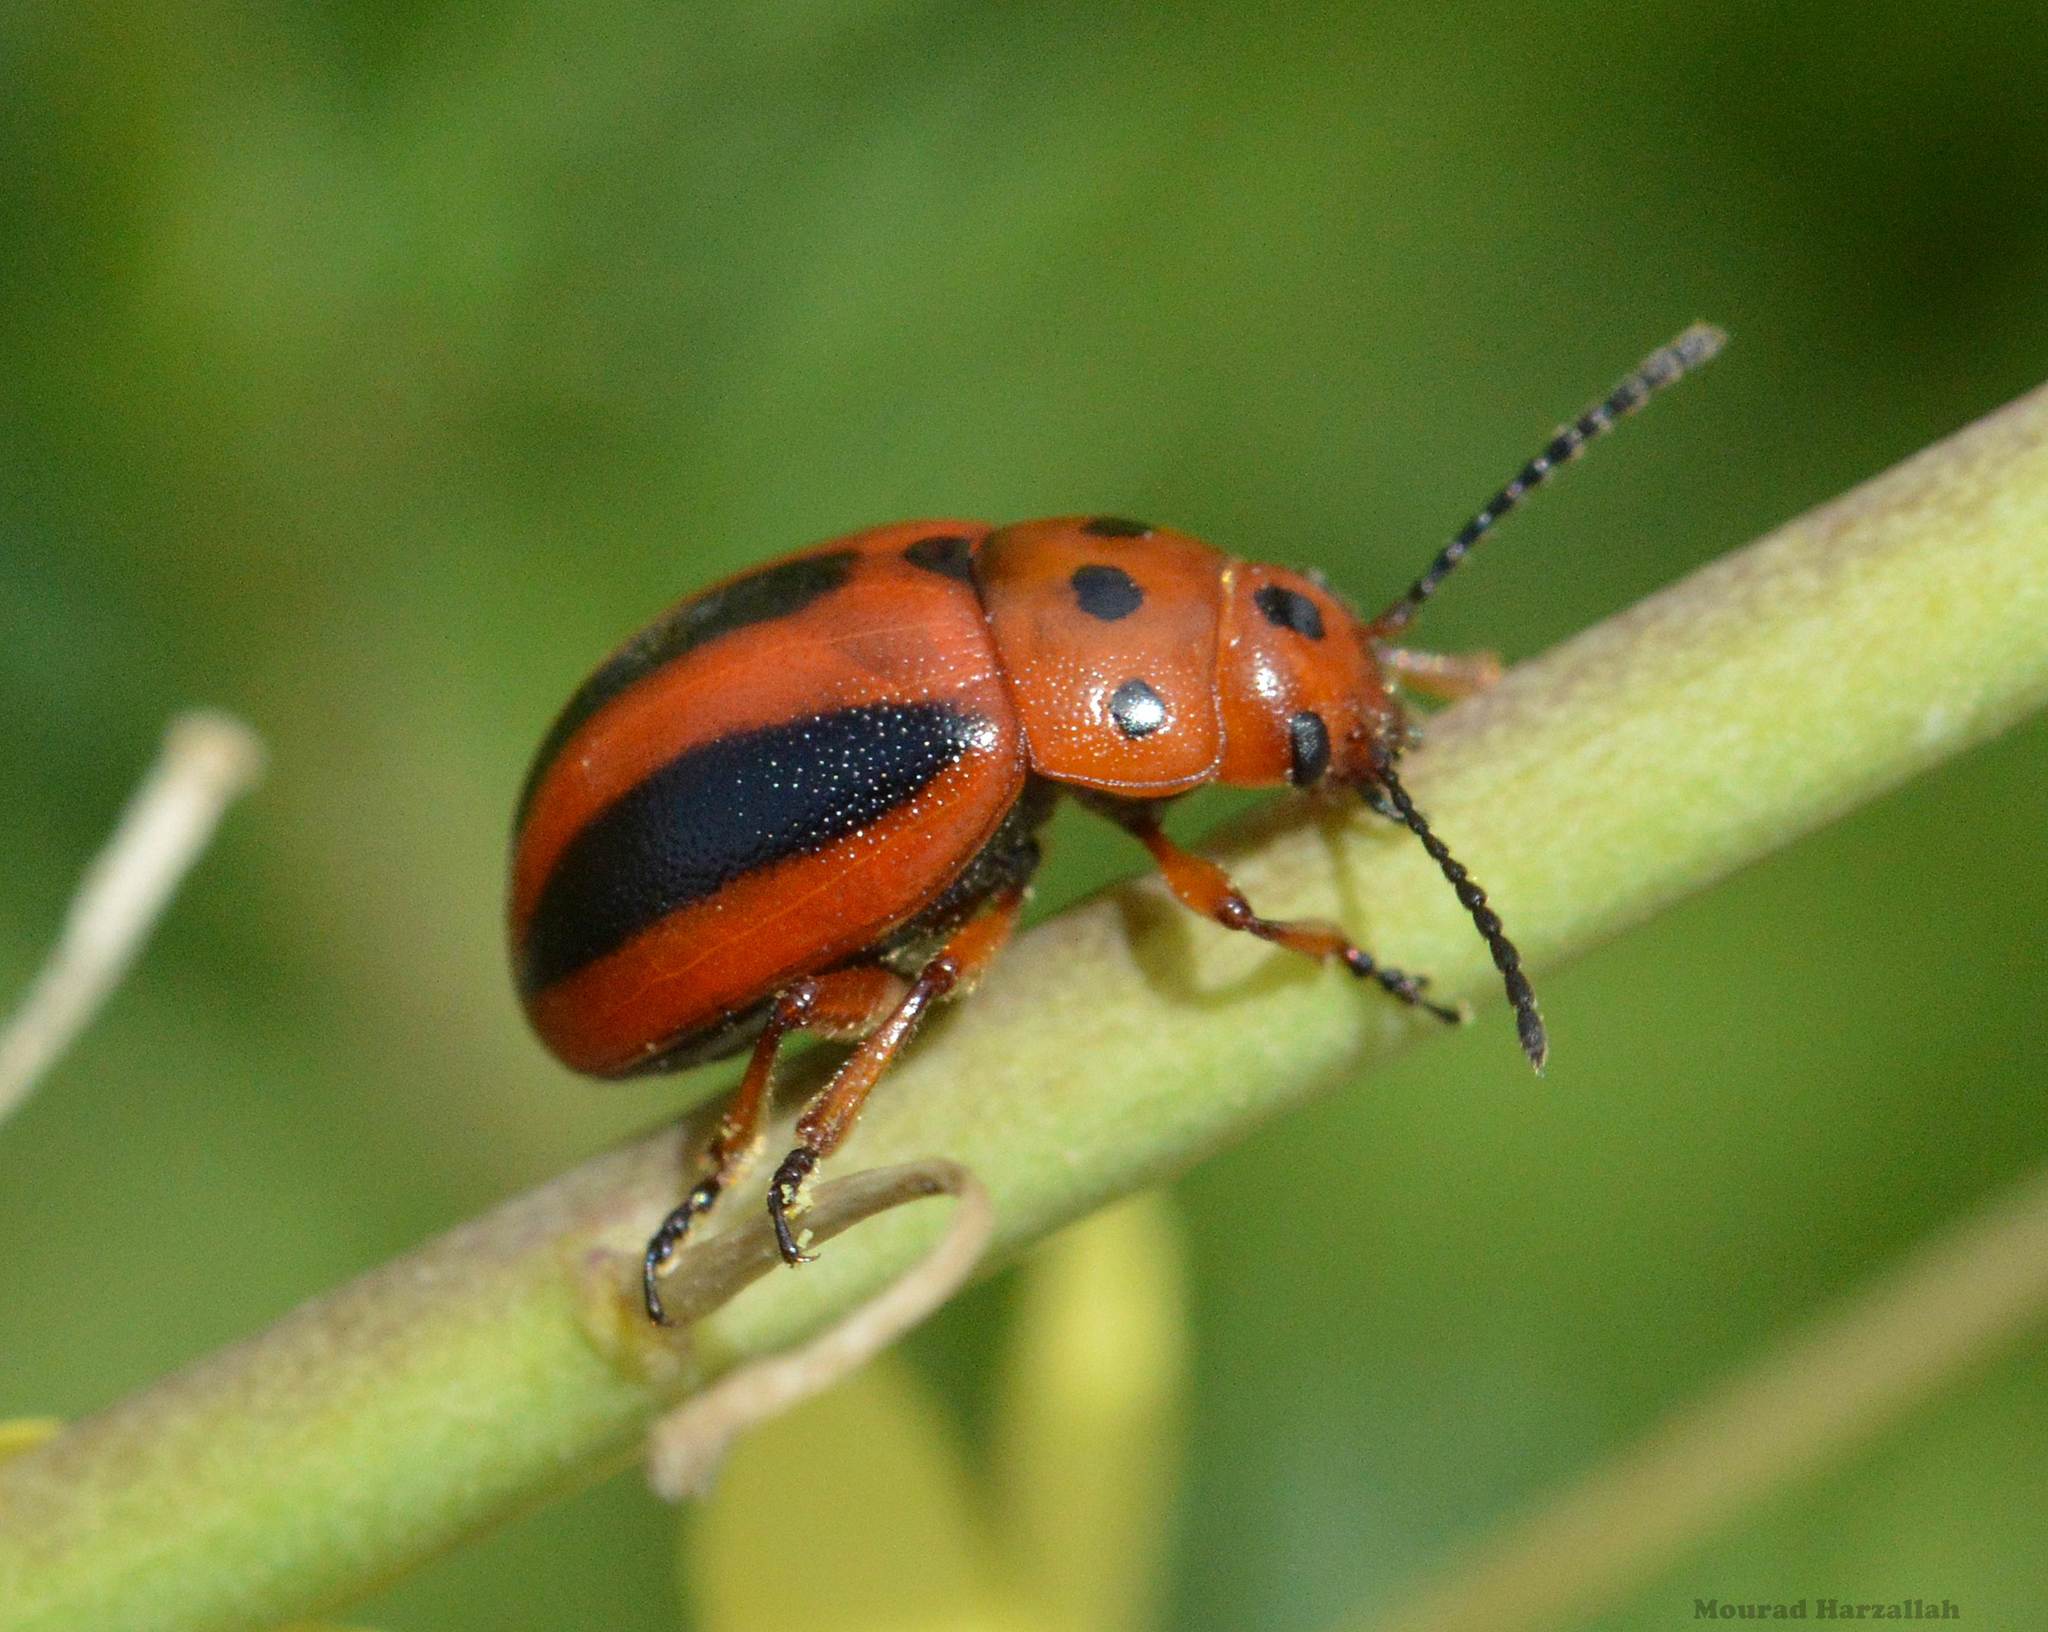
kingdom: Animalia
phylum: Arthropoda
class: Insecta
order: Coleoptera
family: Chrysomelidae
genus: Entomoscelis
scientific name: Entomoscelis rumicis
